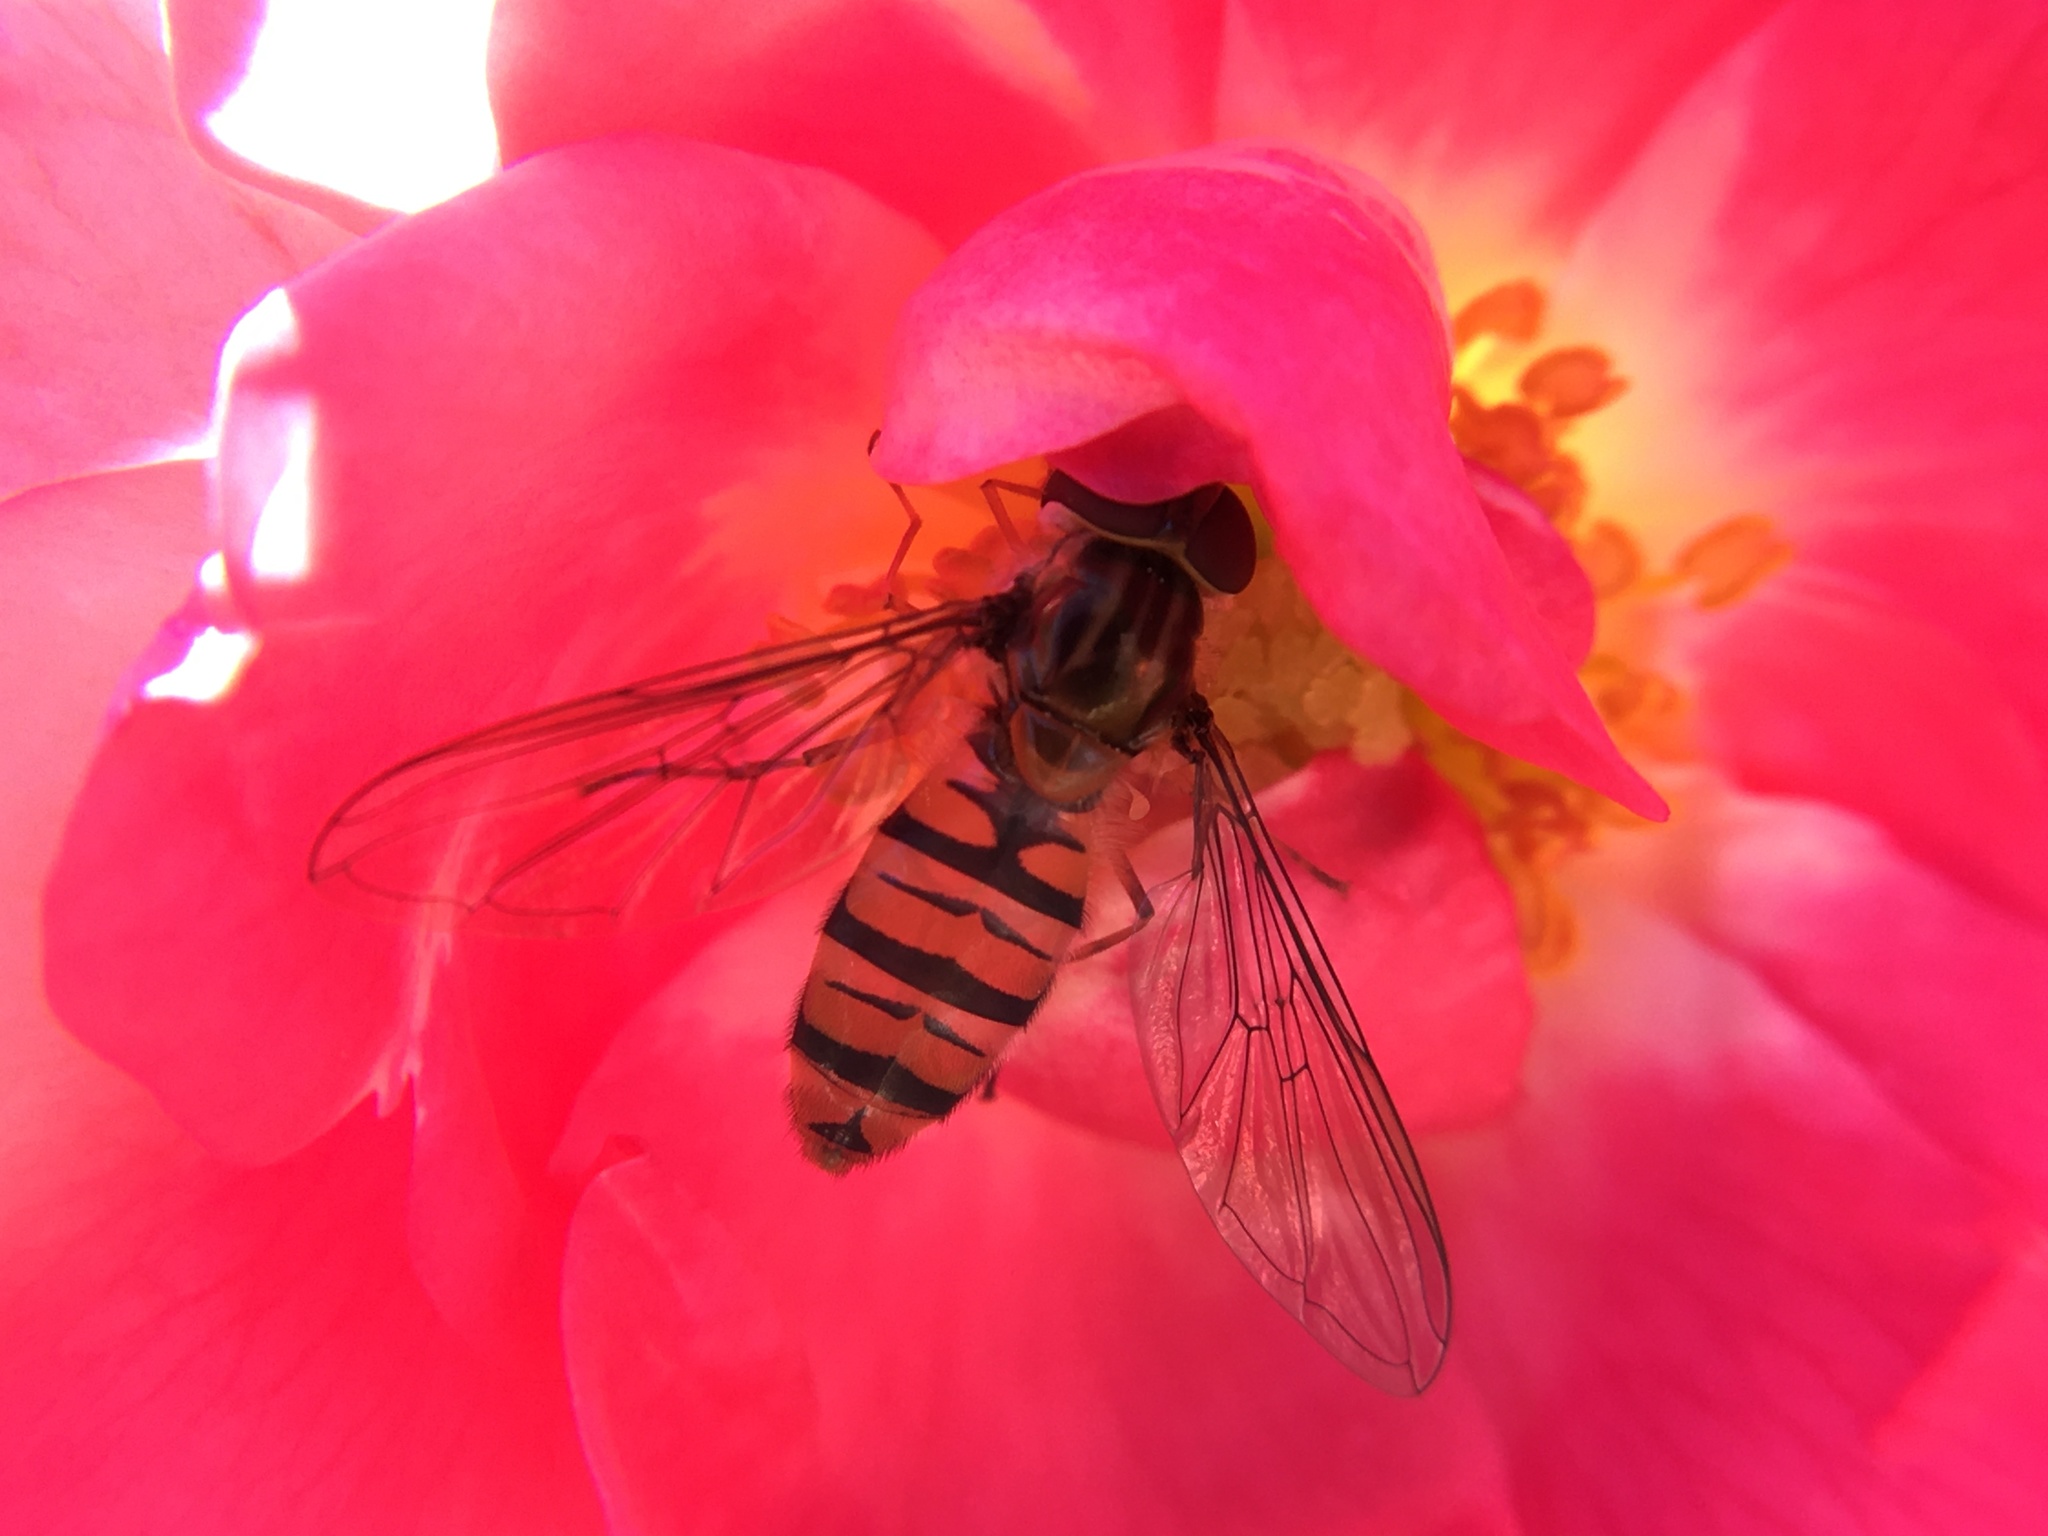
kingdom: Animalia
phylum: Arthropoda
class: Insecta
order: Diptera
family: Syrphidae
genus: Episyrphus
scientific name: Episyrphus balteatus
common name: Marmalade hoverfly
